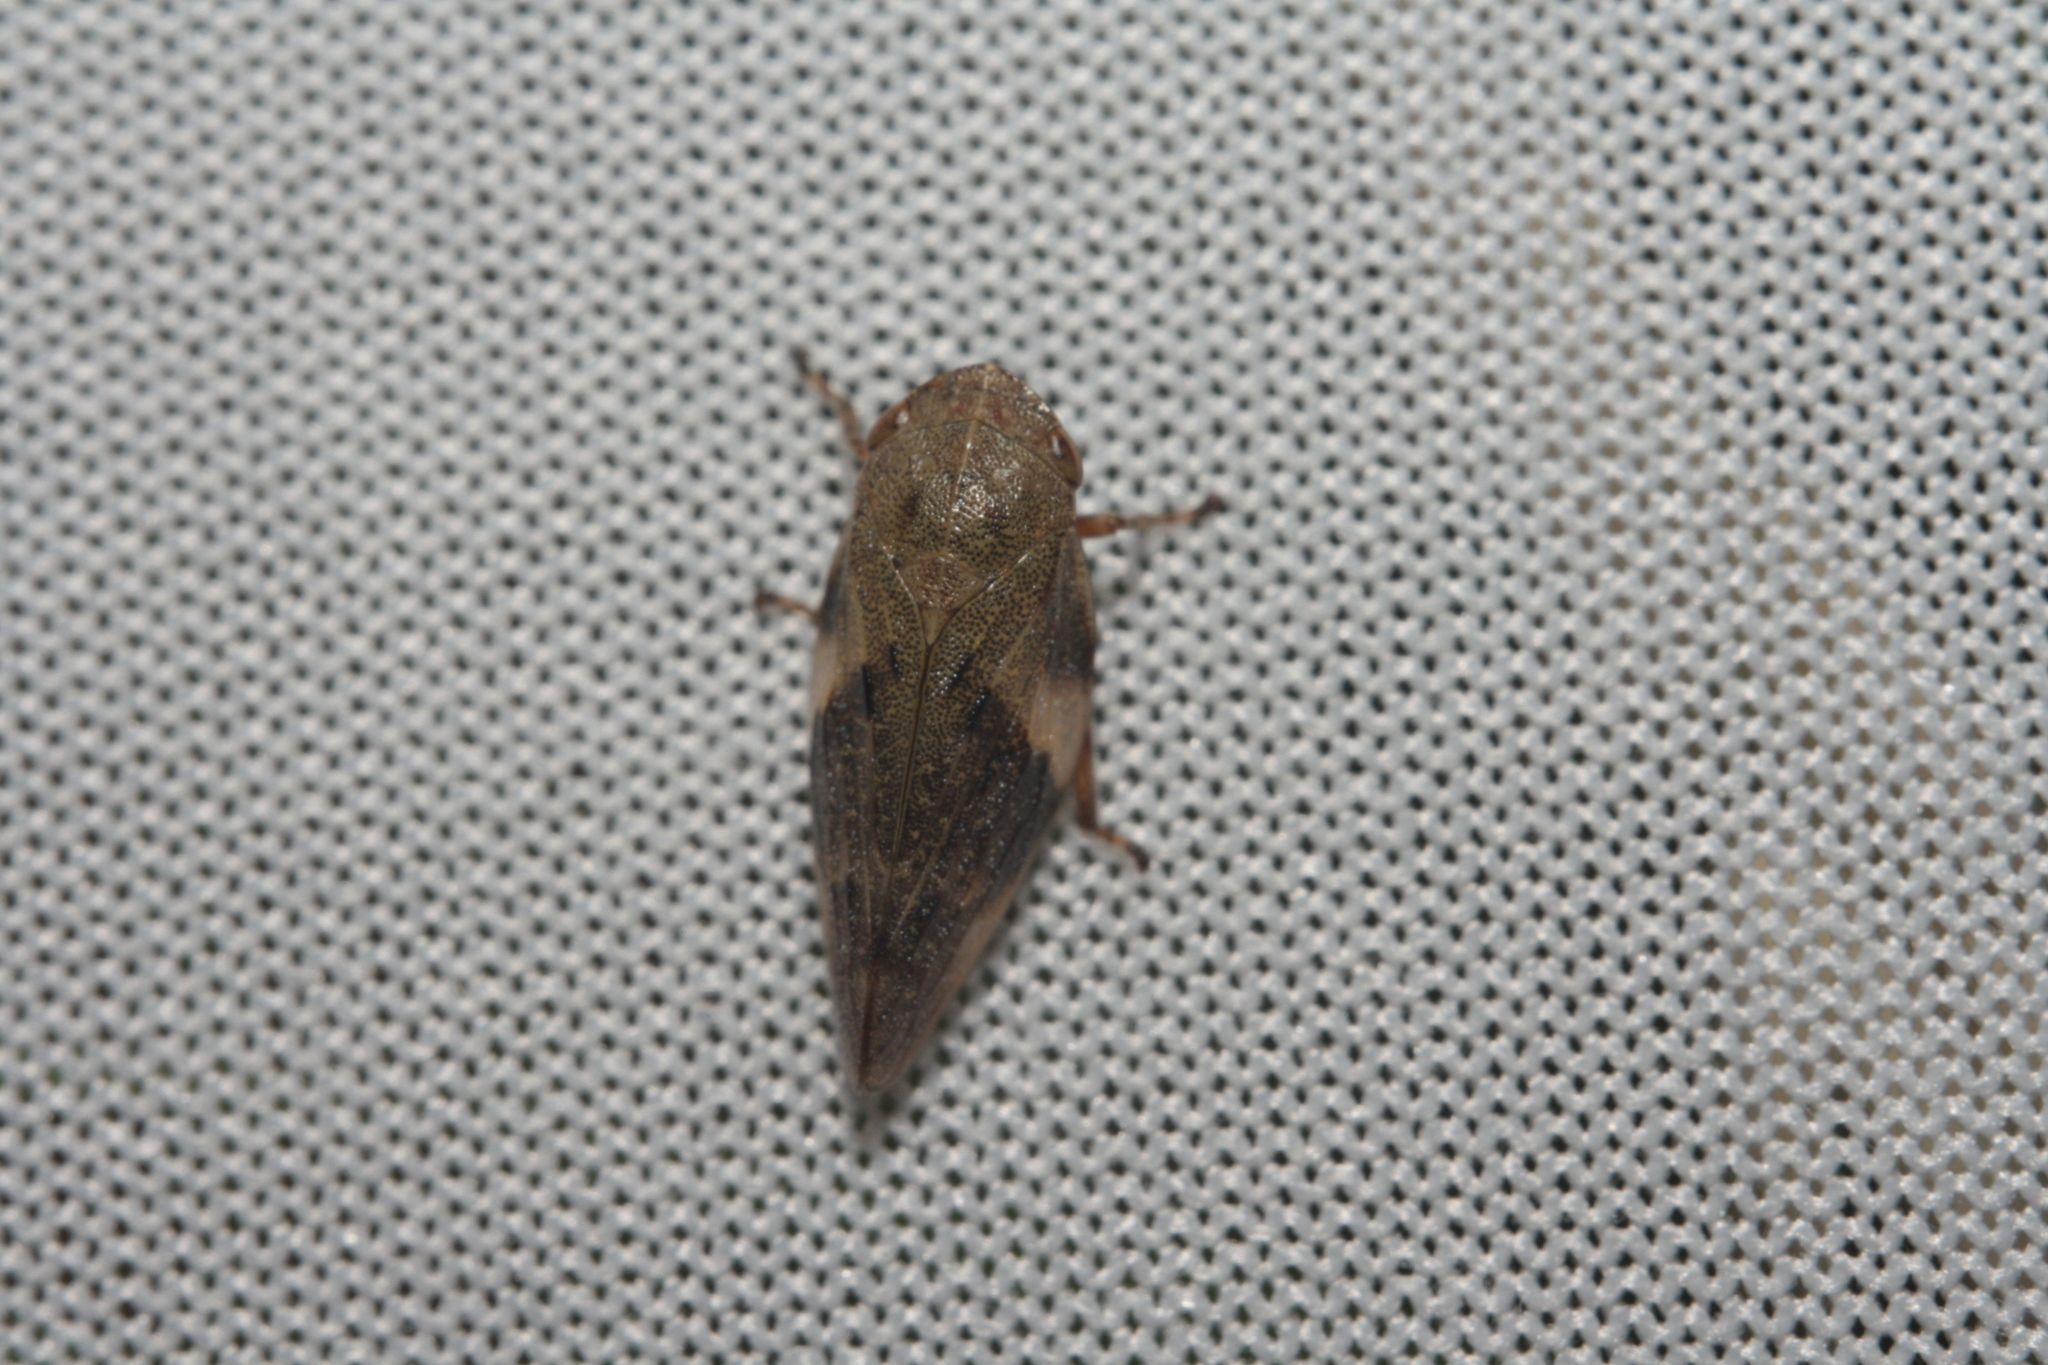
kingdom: Animalia
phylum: Arthropoda
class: Insecta
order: Hemiptera
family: Aphrophoridae
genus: Aphrophora
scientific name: Aphrophora alni
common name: European alder spittlebug
